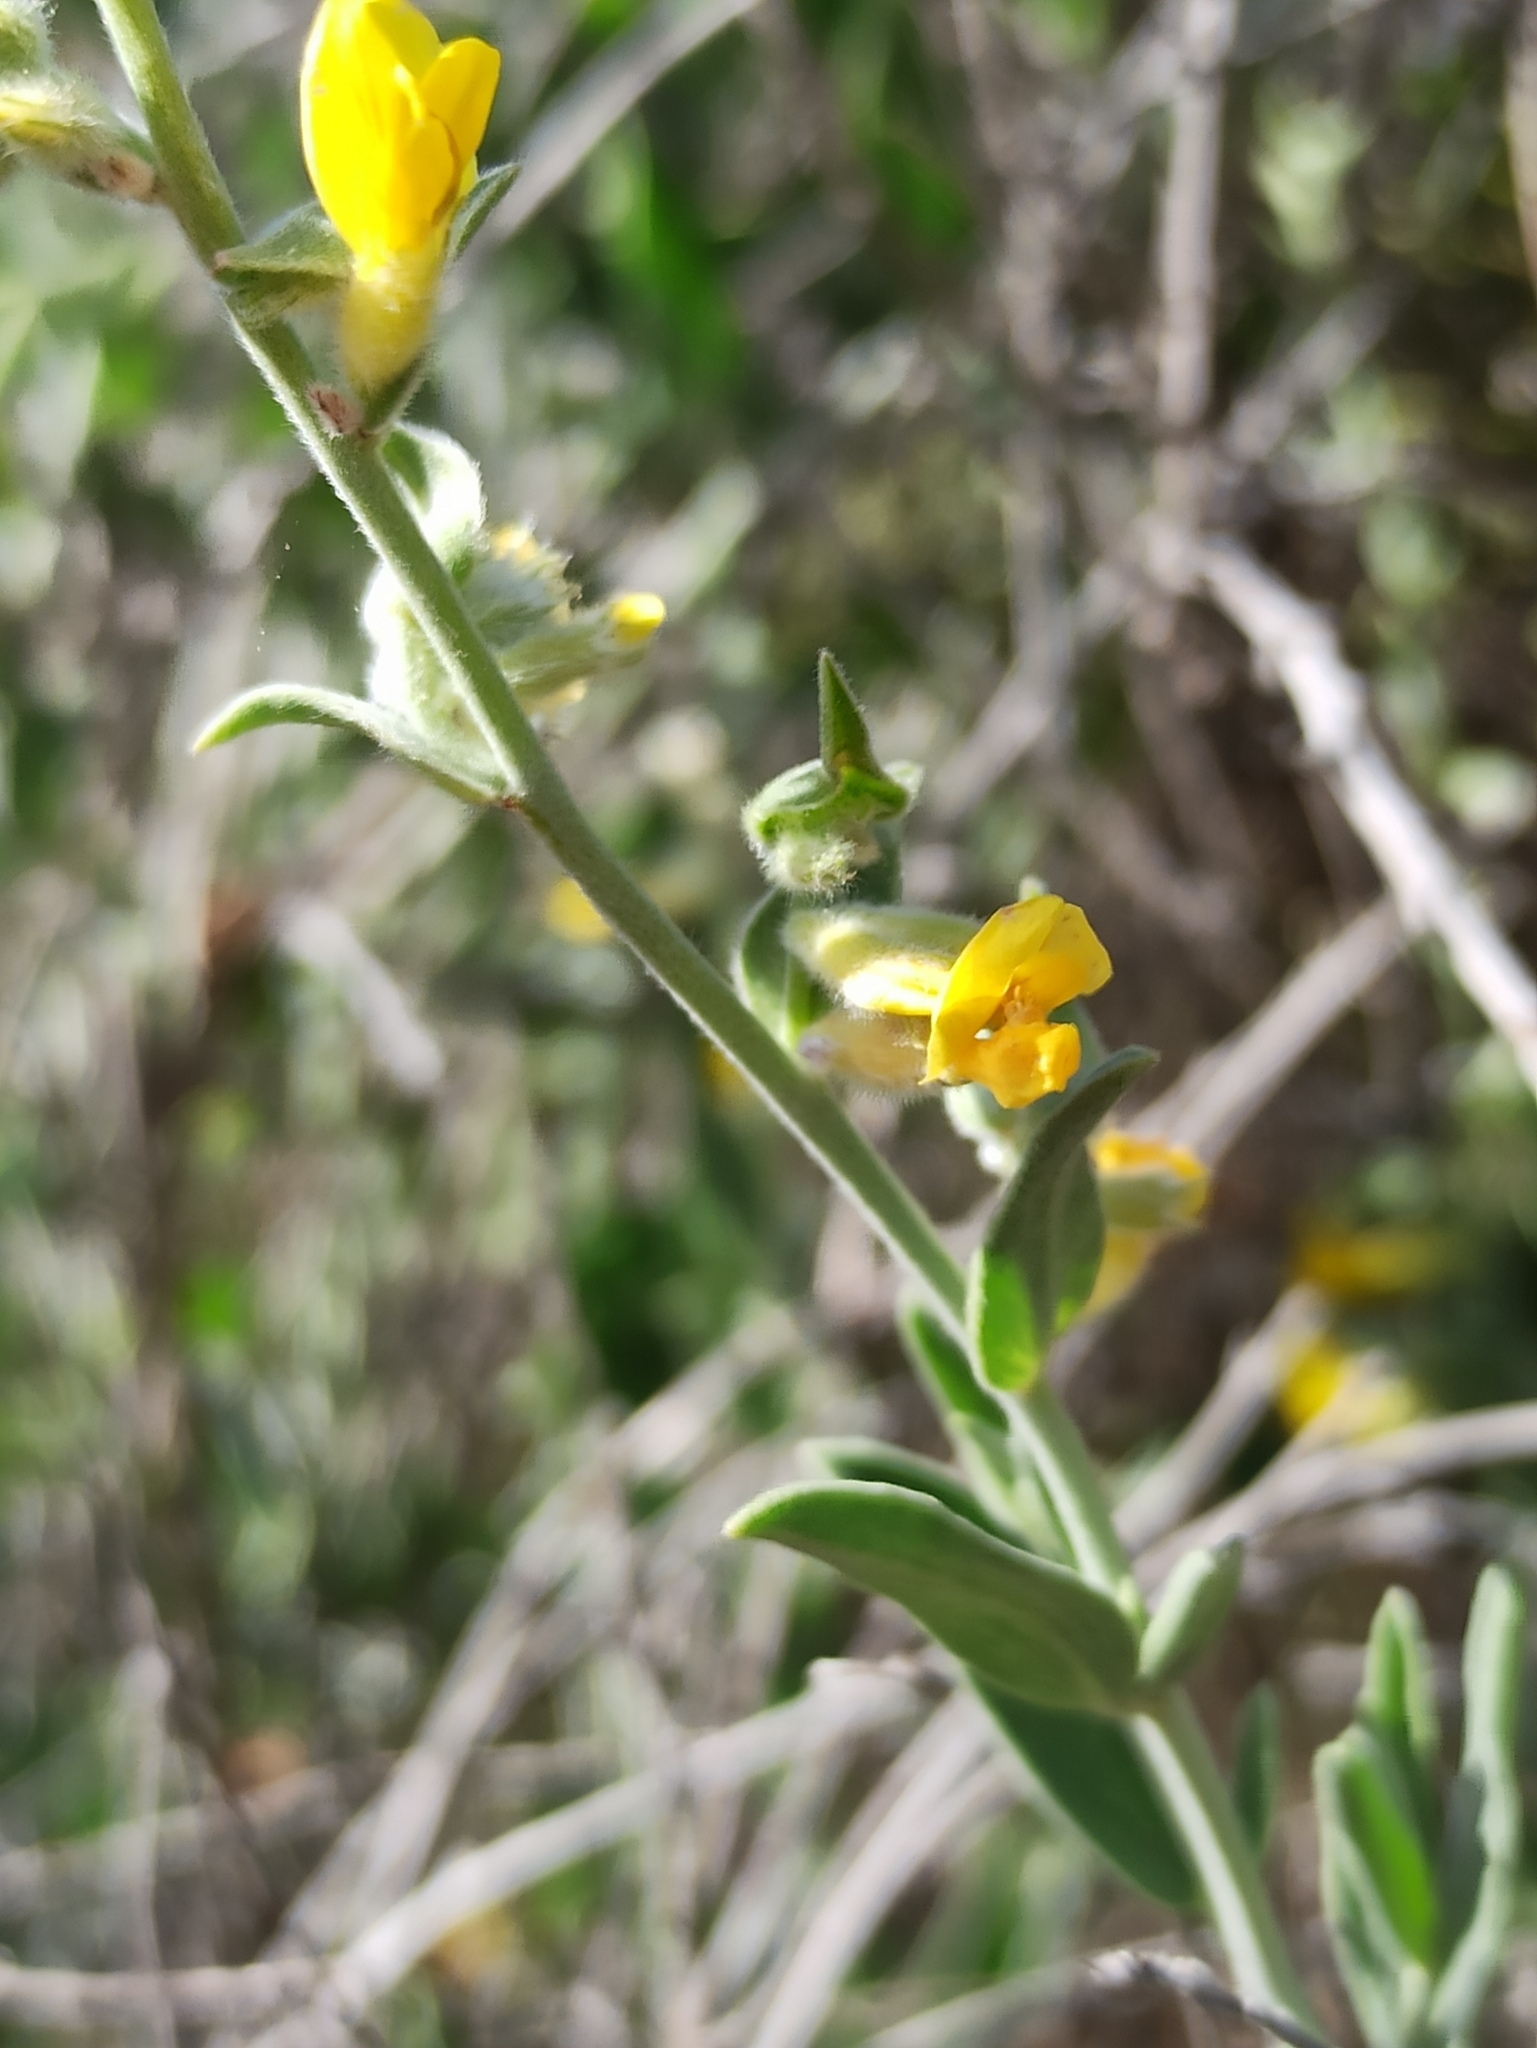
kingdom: Plantae
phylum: Tracheophyta
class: Magnoliopsida
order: Fabales
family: Fabaceae
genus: Anthyllis
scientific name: Anthyllis cytisoides
